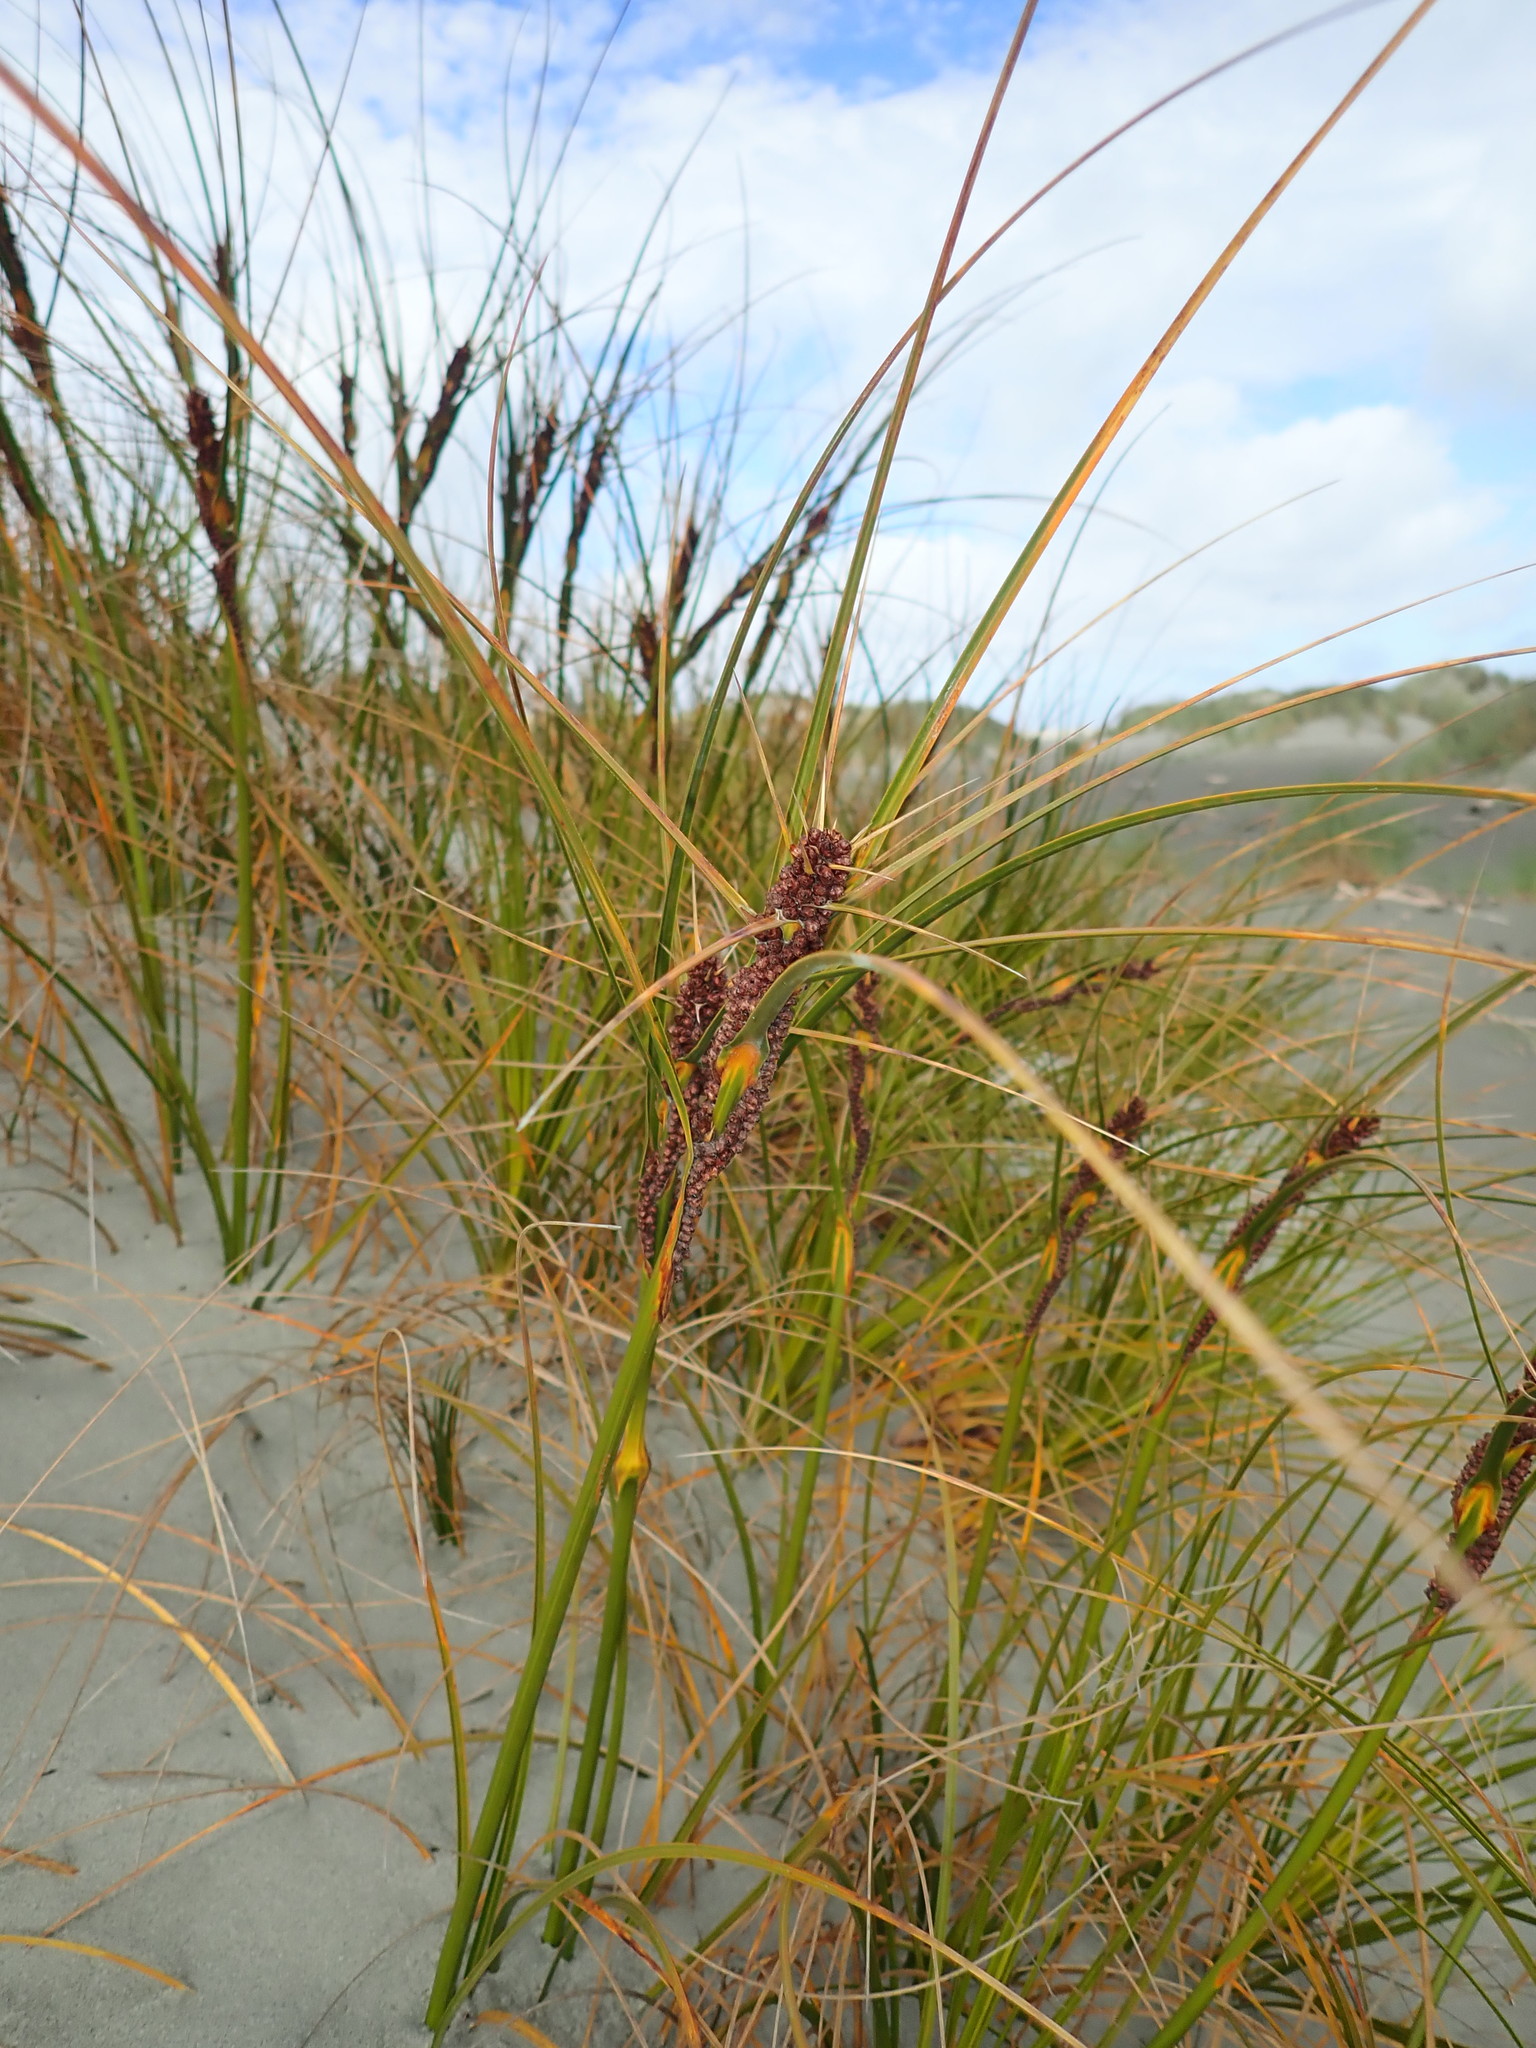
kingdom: Plantae
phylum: Tracheophyta
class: Liliopsida
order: Poales
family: Cyperaceae
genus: Ficinia
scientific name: Ficinia spiralis
